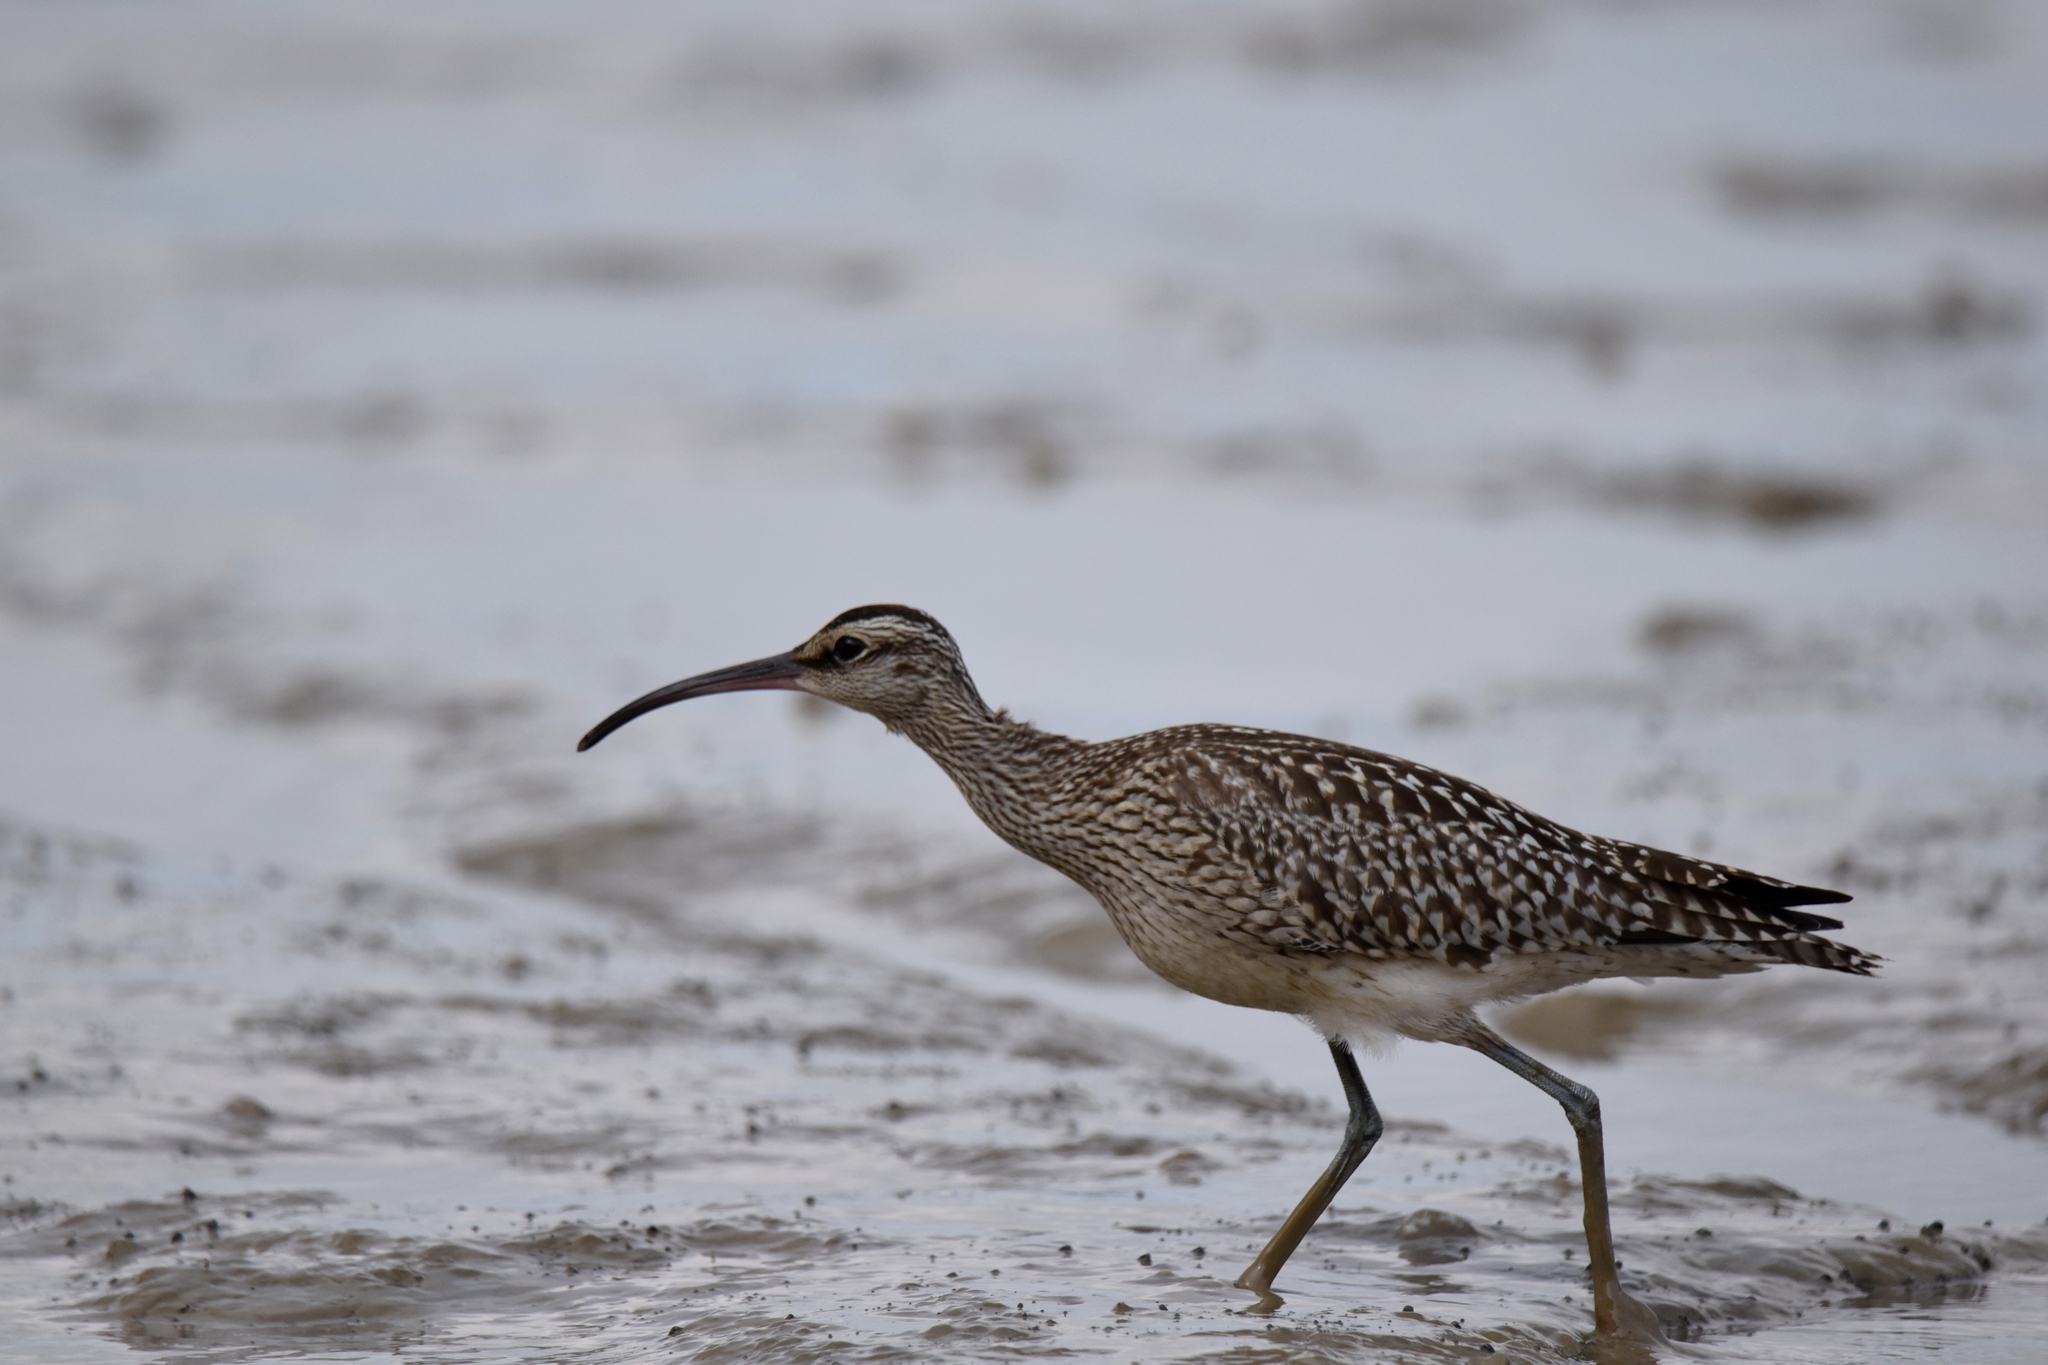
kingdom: Animalia
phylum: Chordata
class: Aves
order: Charadriiformes
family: Scolopacidae
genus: Numenius
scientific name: Numenius phaeopus
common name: Whimbrel
